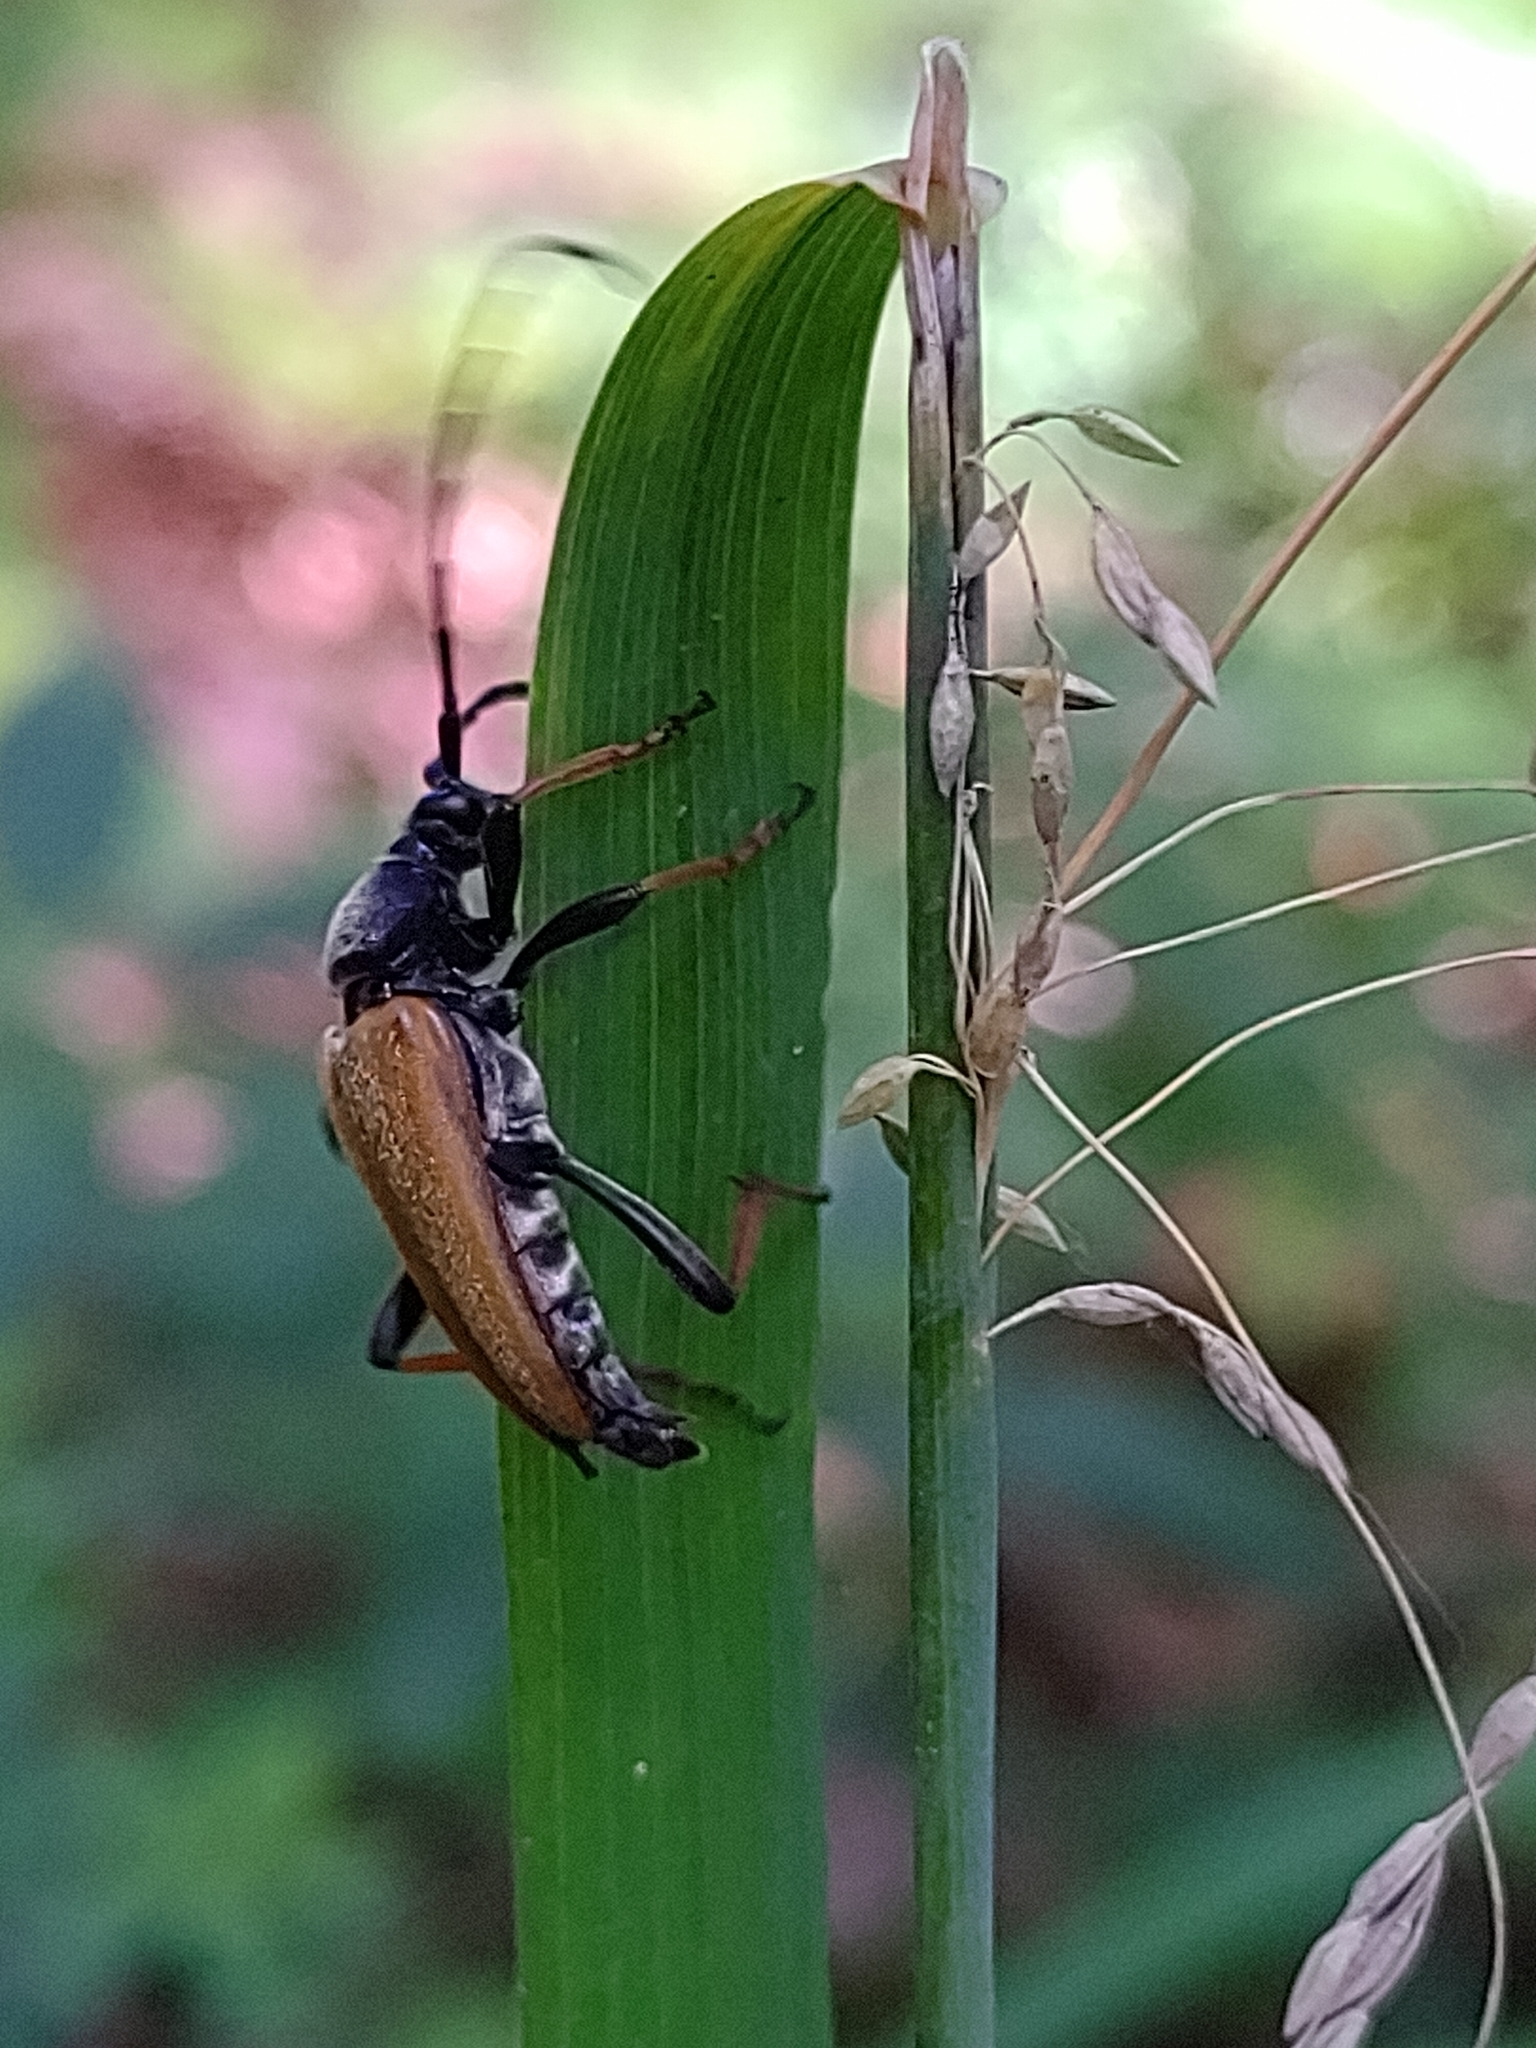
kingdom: Animalia
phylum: Arthropoda
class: Insecta
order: Coleoptera
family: Cerambycidae
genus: Stictoleptura
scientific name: Stictoleptura rubra
